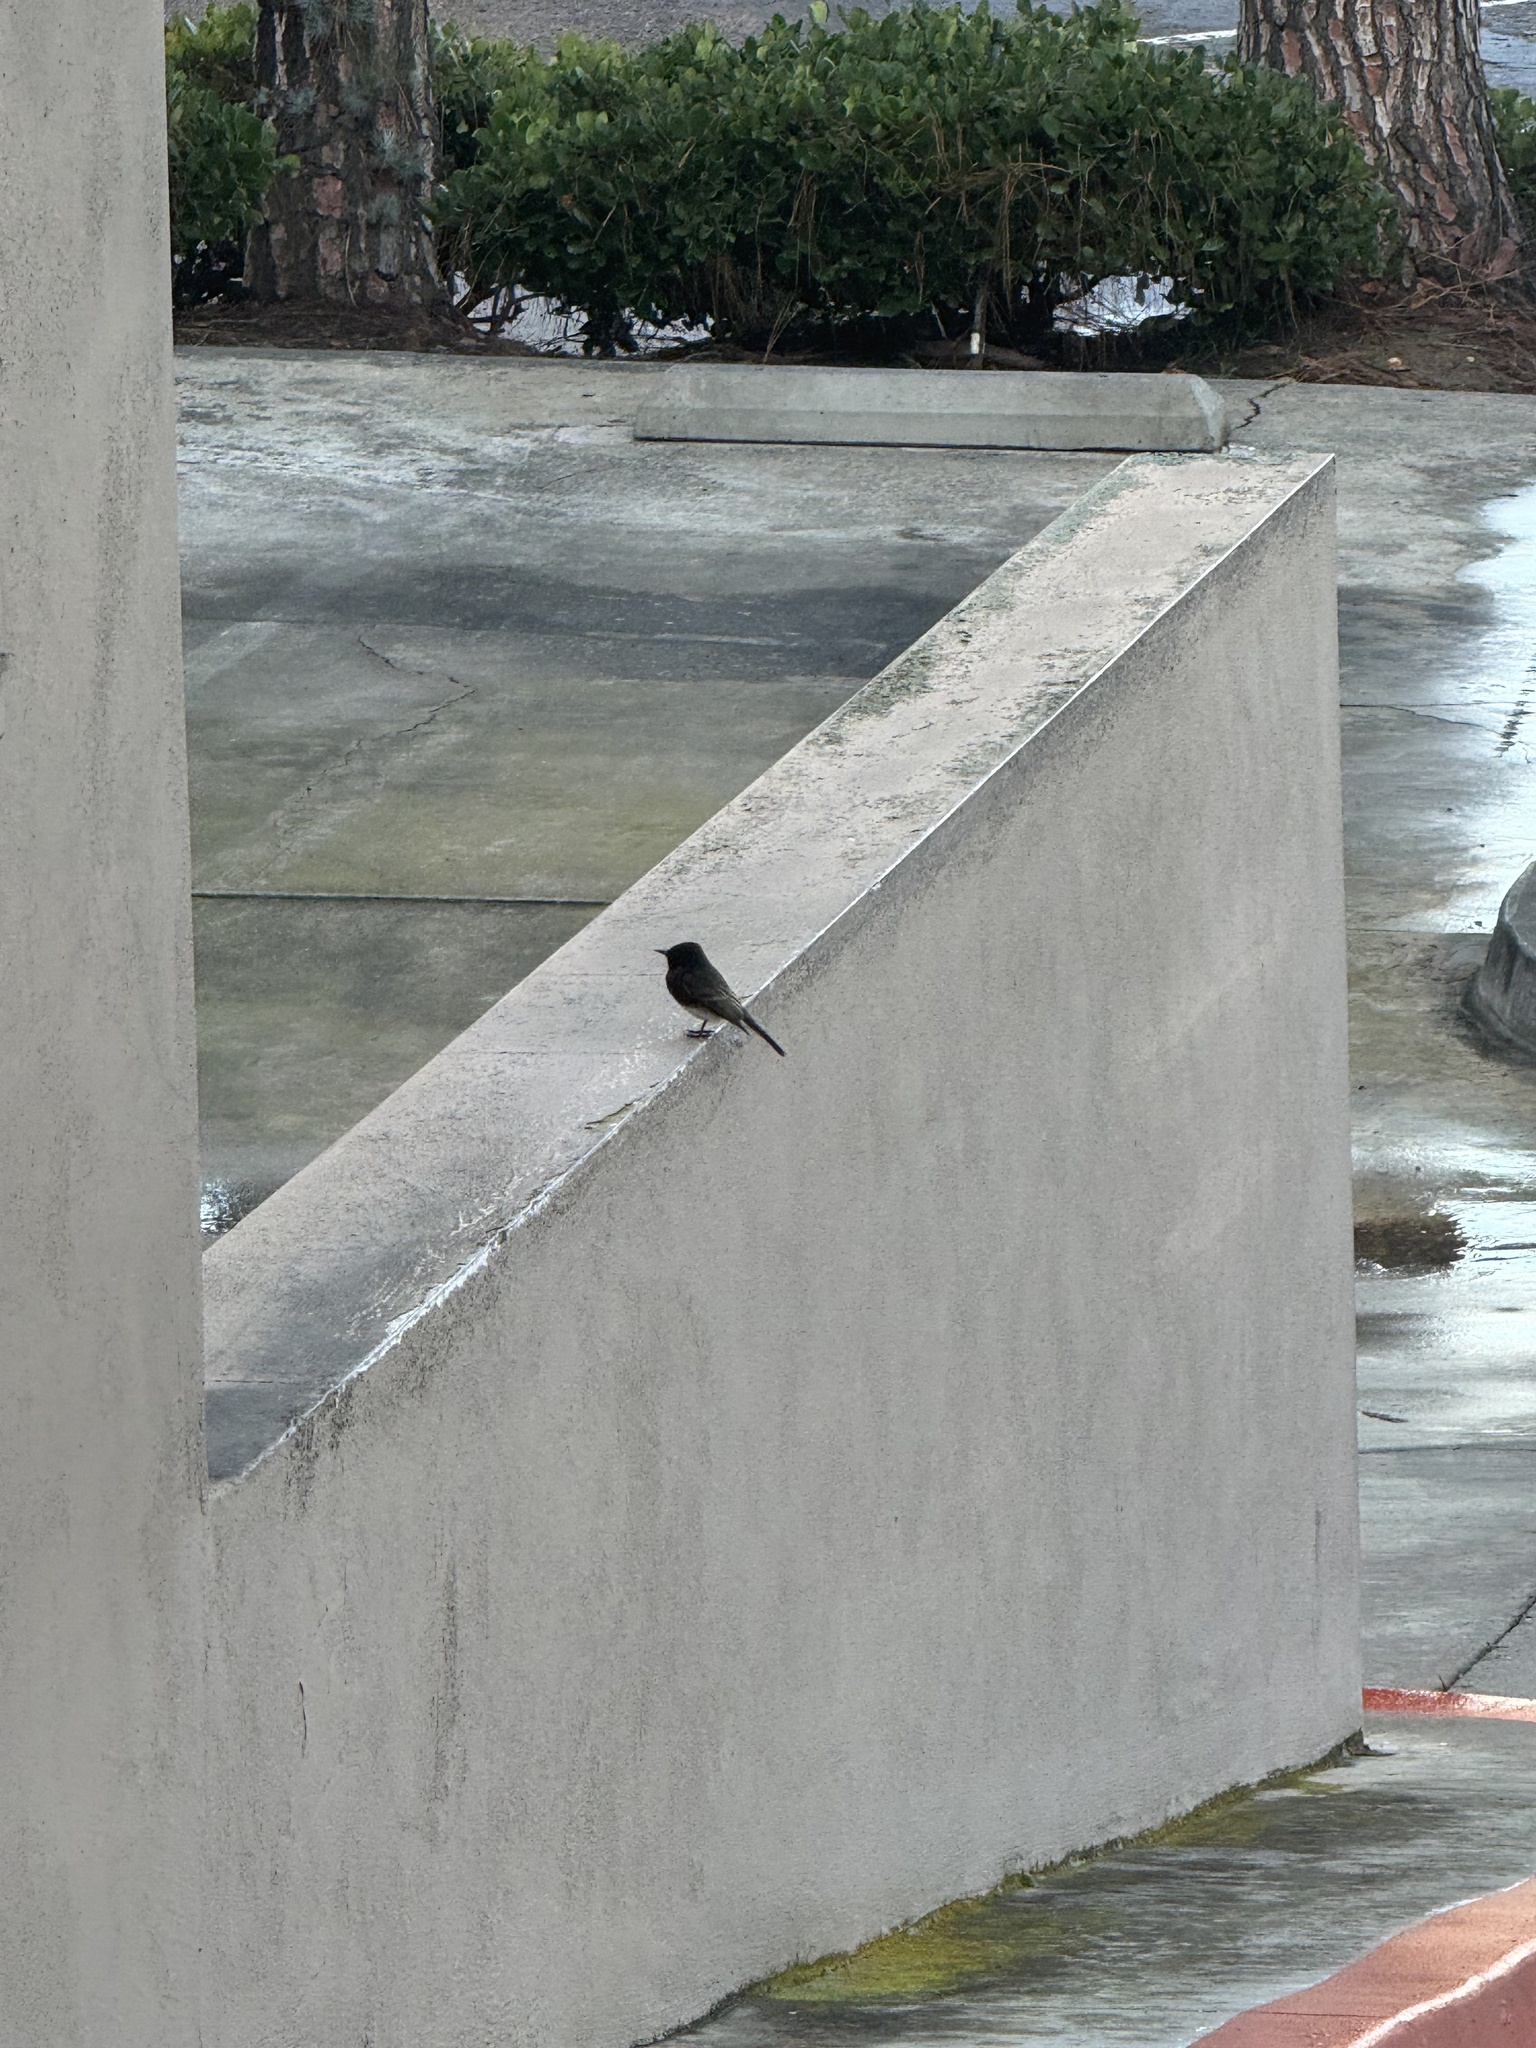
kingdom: Animalia
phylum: Chordata
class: Aves
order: Passeriformes
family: Tyrannidae
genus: Sayornis
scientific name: Sayornis nigricans
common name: Black phoebe
